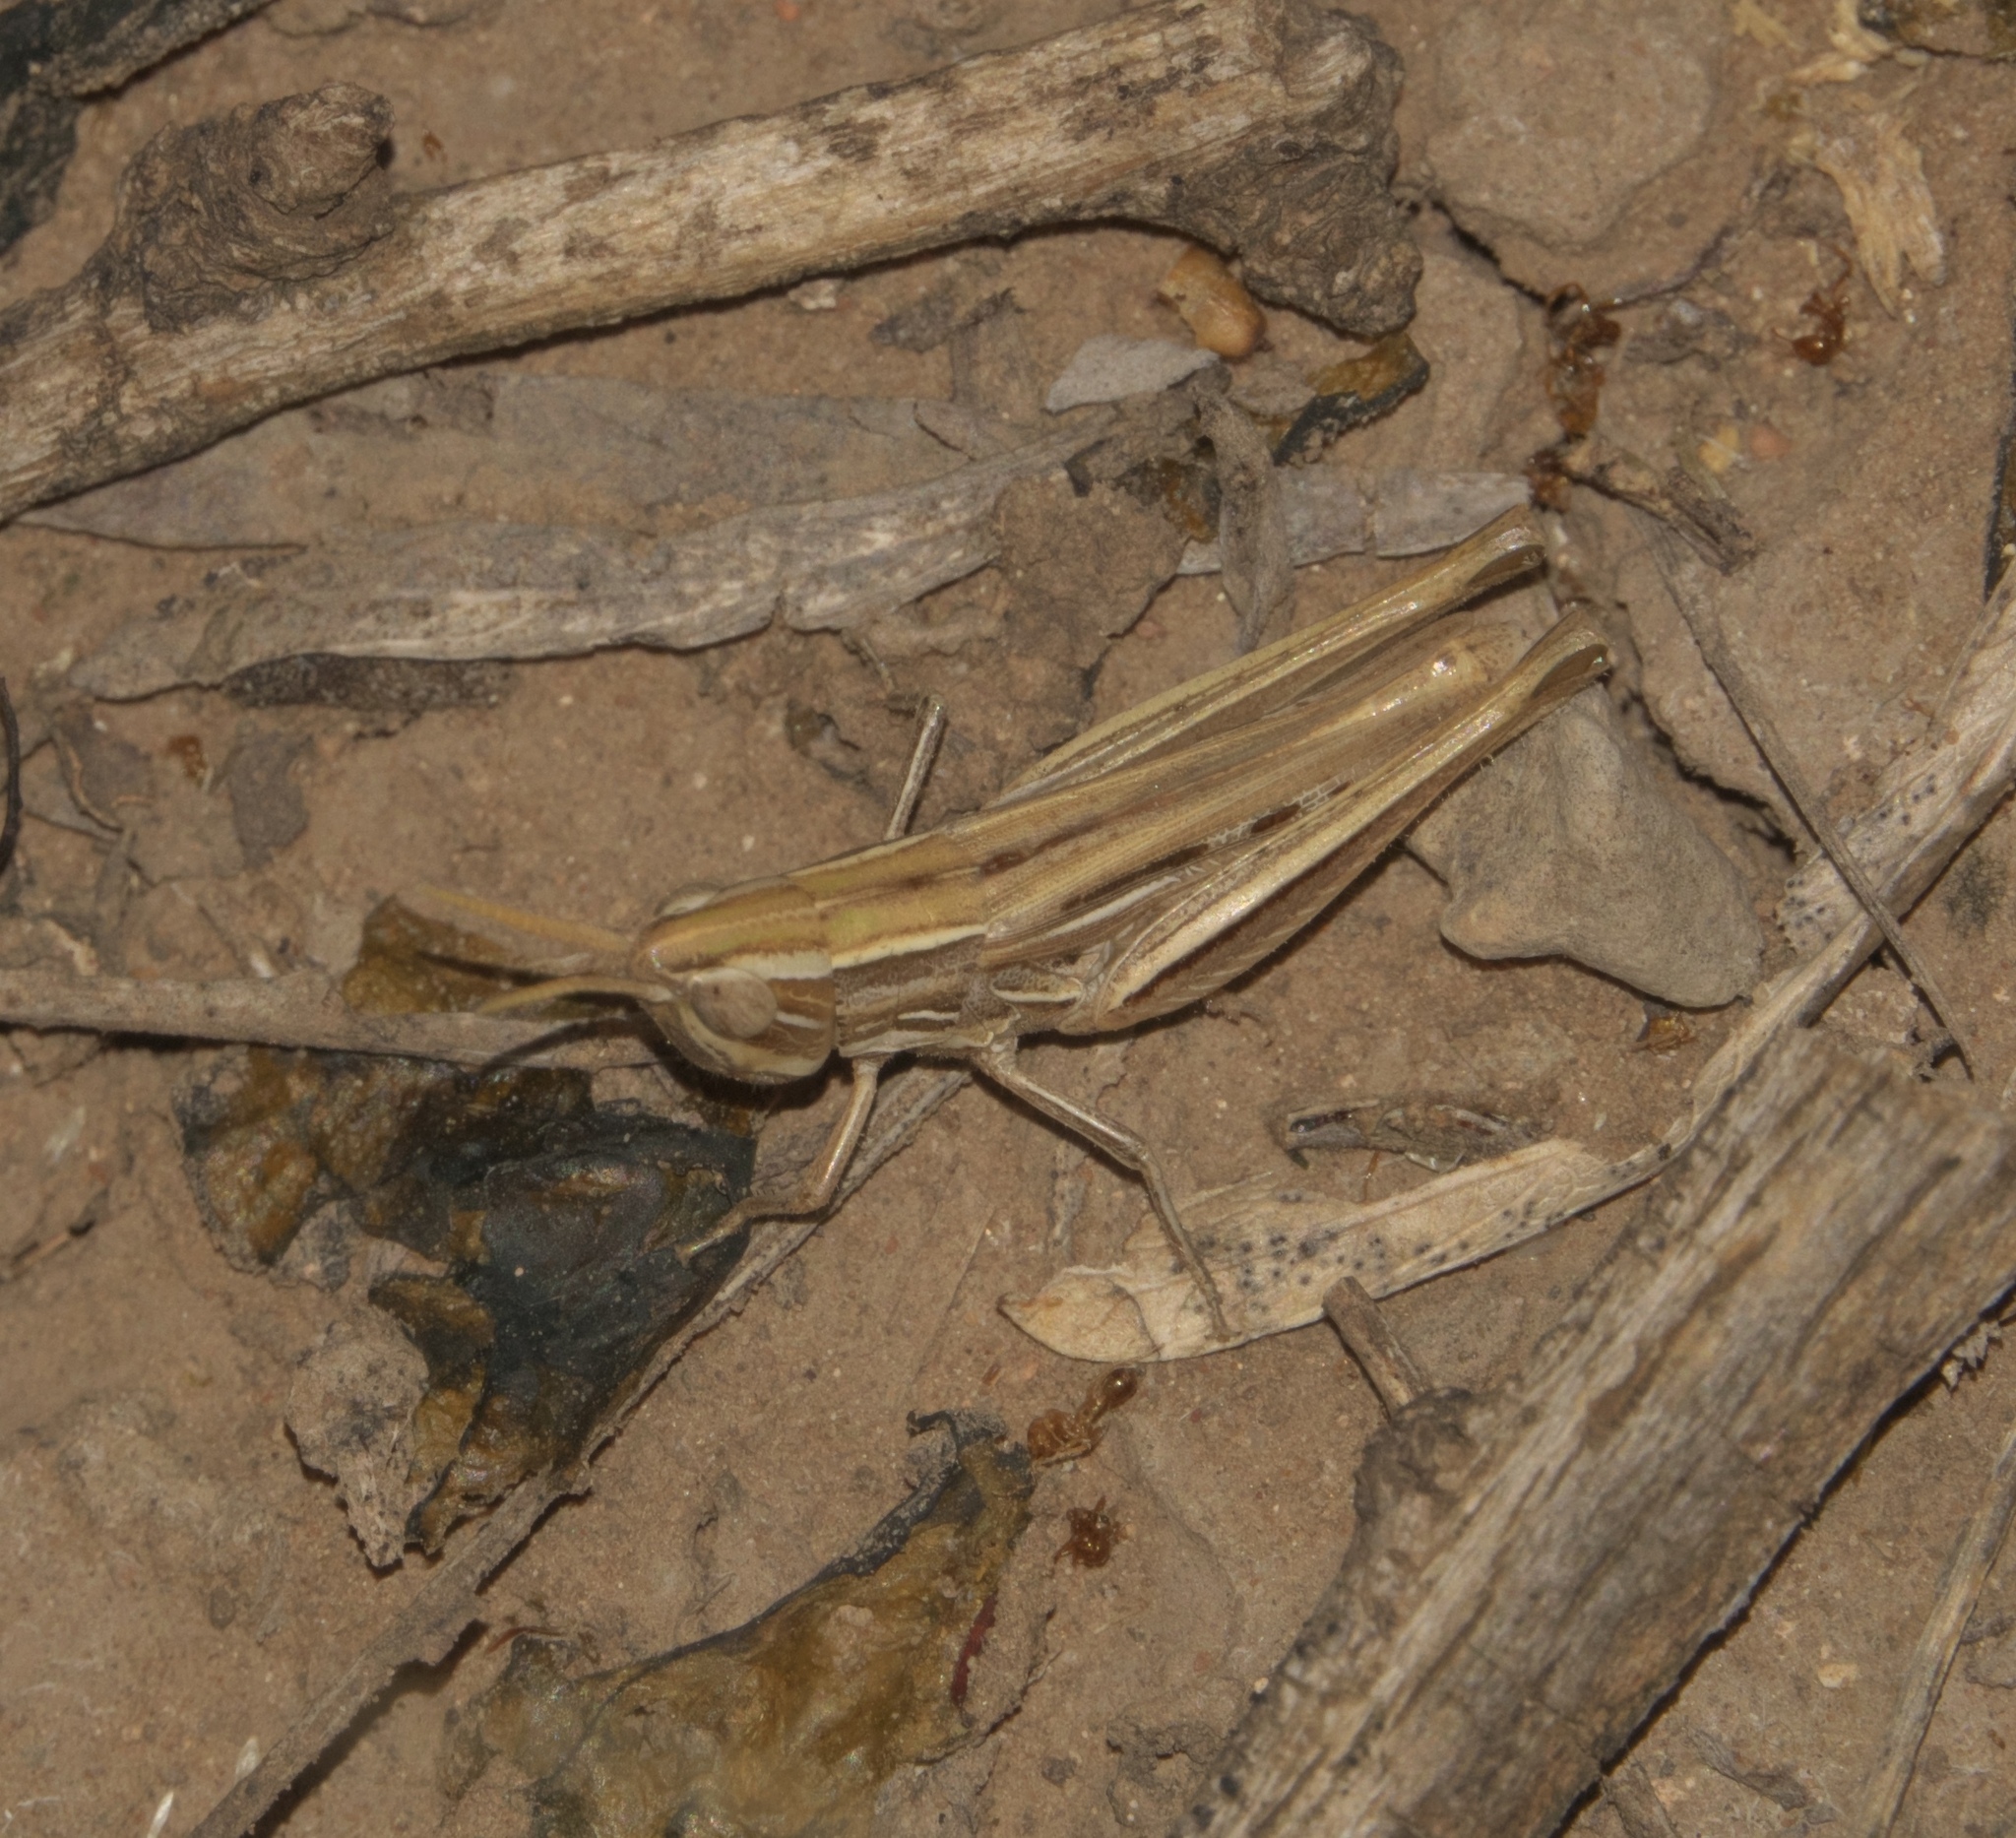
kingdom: Animalia
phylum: Arthropoda
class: Insecta
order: Orthoptera
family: Acrididae
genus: Opeia
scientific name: Opeia obscura
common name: Obscure grasshopper
